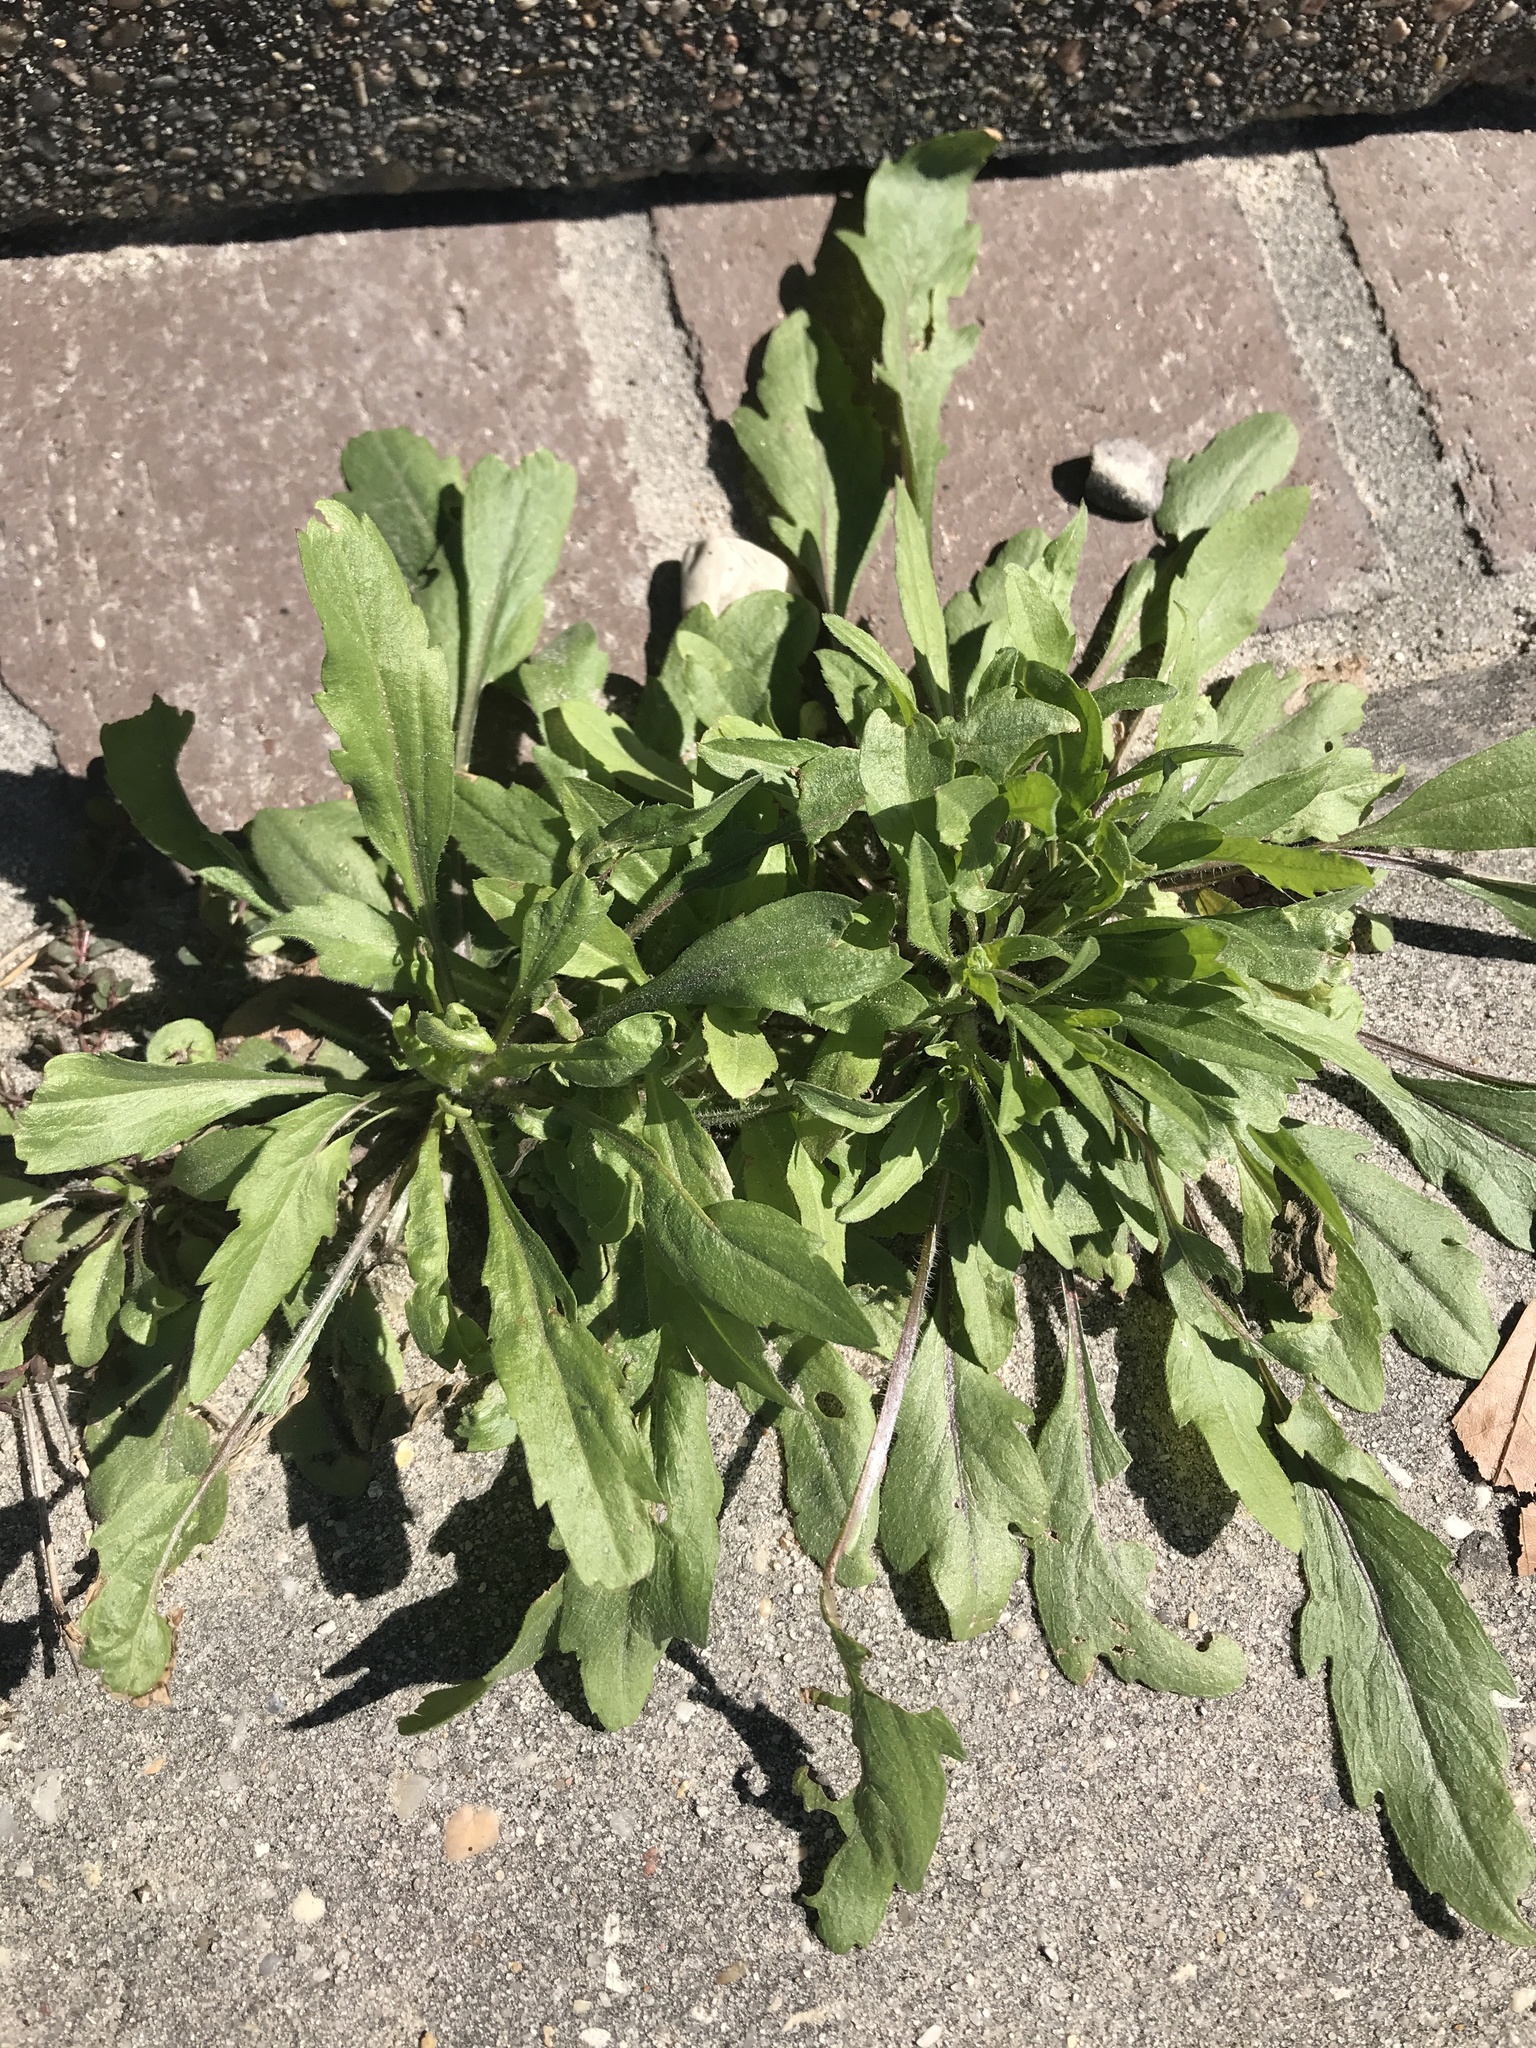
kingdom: Plantae
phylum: Tracheophyta
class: Magnoliopsida
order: Asterales
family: Asteraceae
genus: Erigeron
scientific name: Erigeron canadensis
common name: Canadian fleabane
